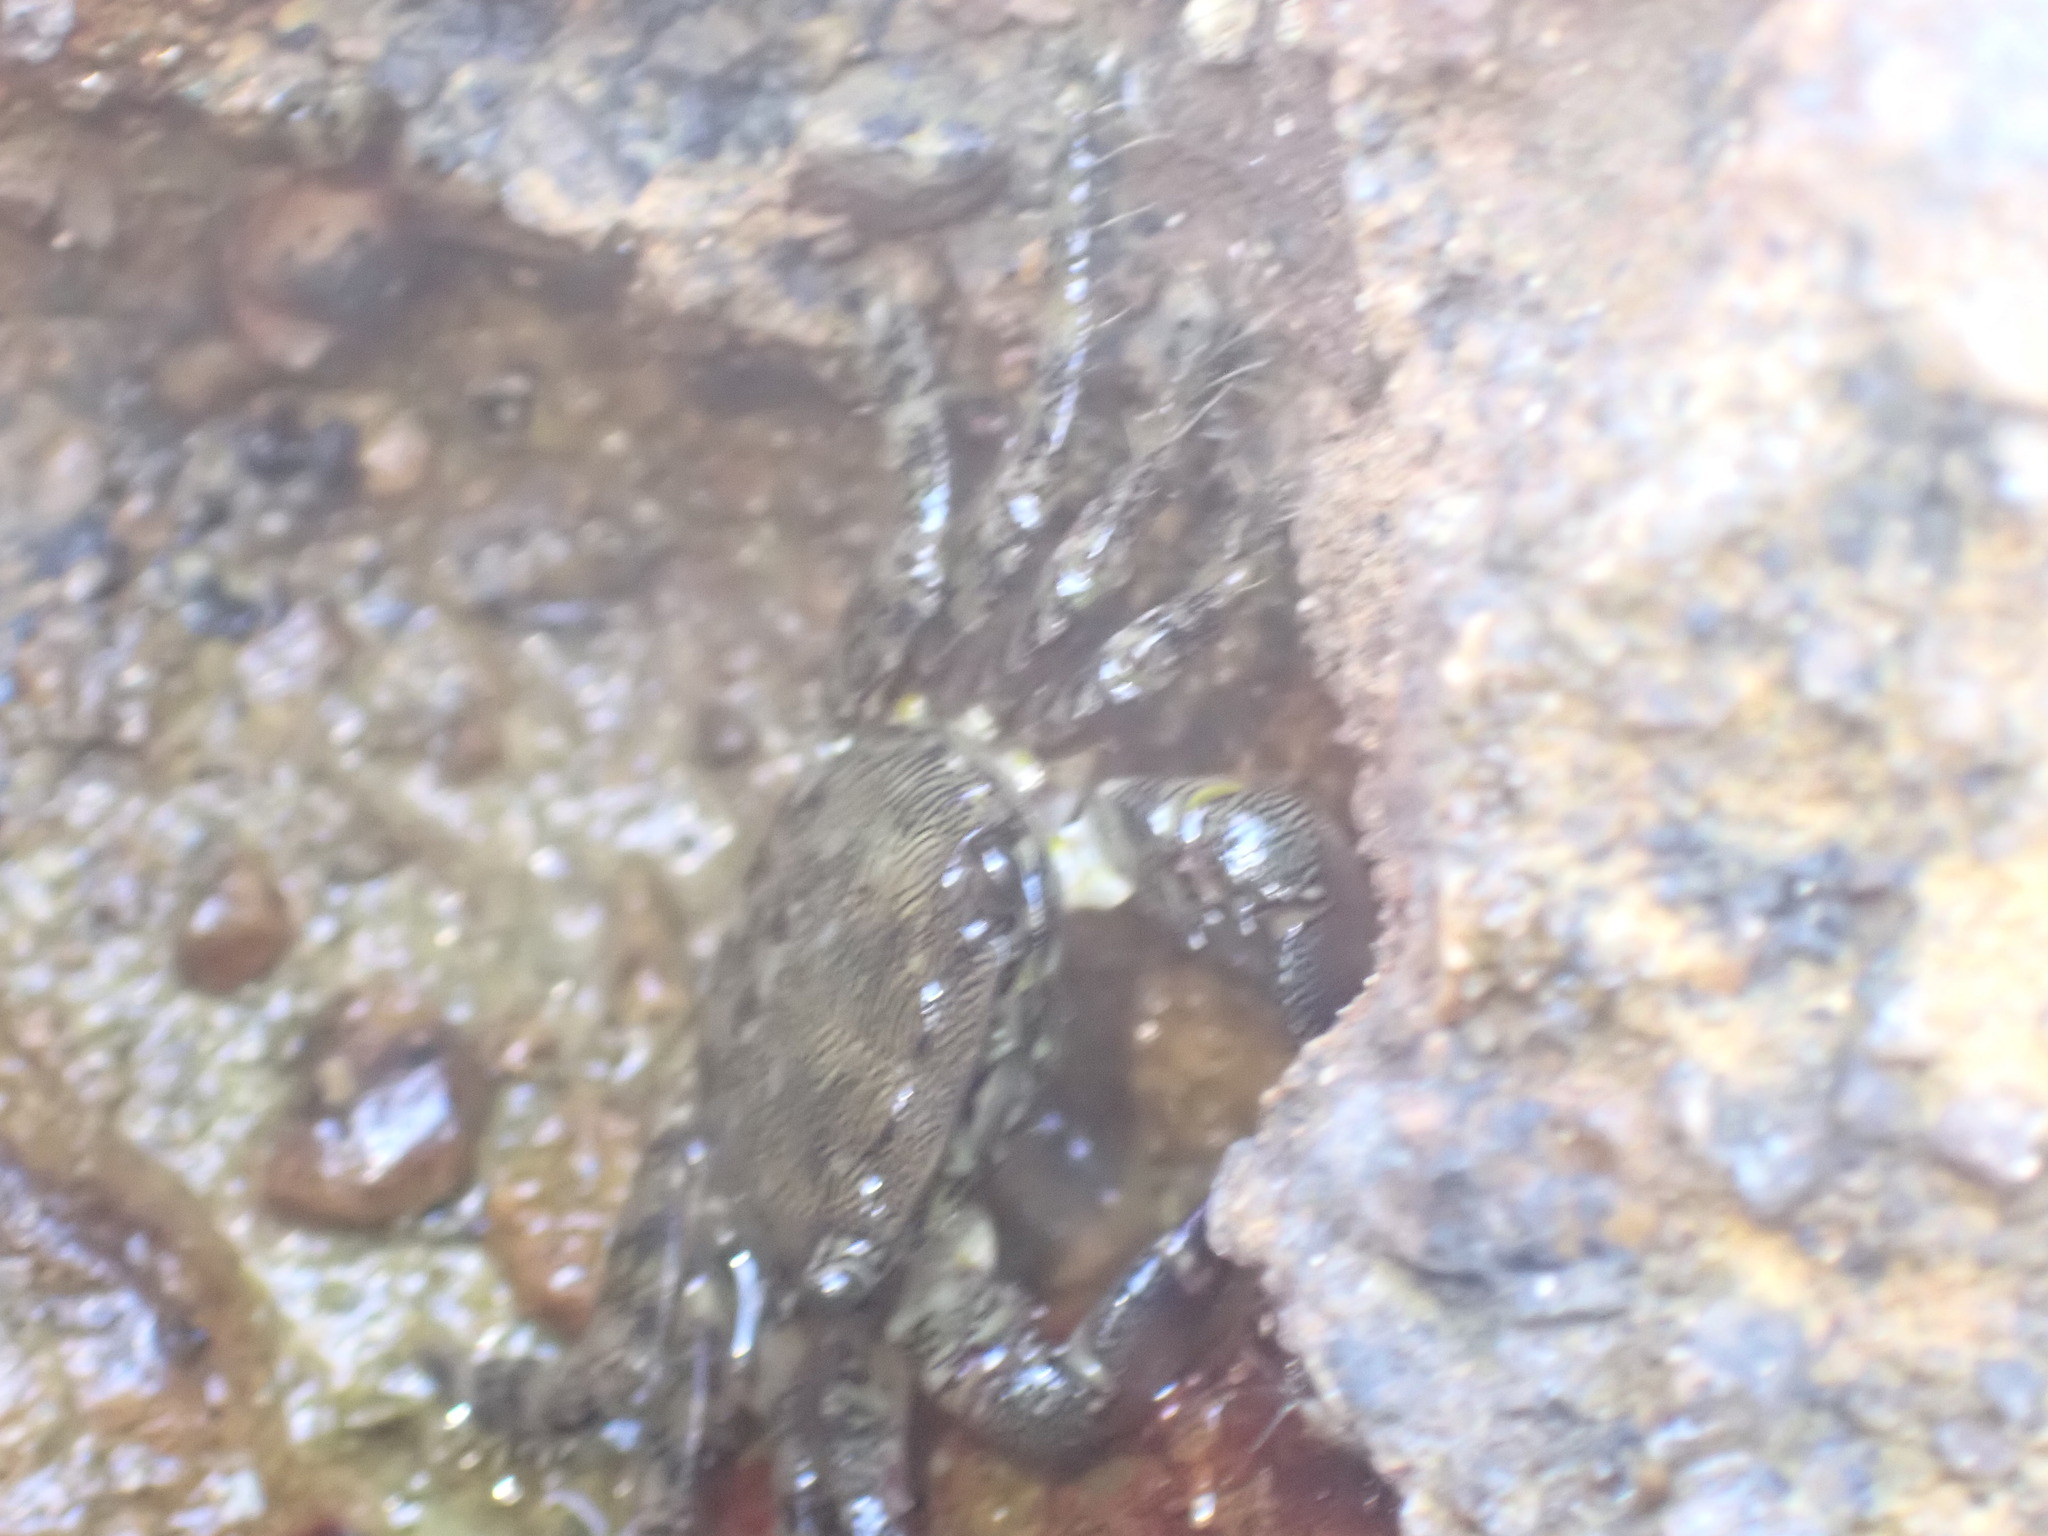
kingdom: Animalia
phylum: Arthropoda
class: Malacostraca
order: Decapoda
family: Grapsidae
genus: Pachygrapsus
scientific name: Pachygrapsus marmoratus
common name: Marbled rock crab
